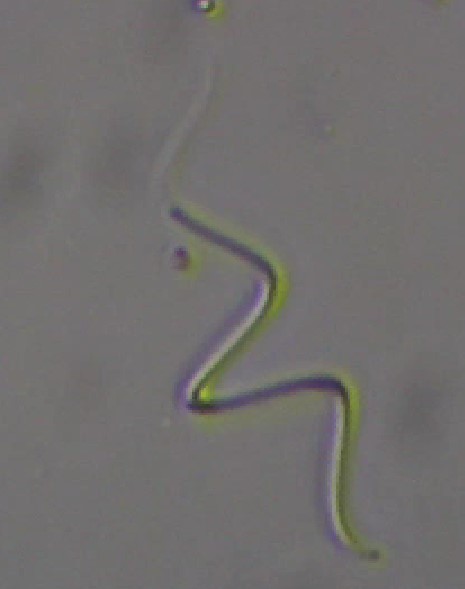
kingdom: Bacteria
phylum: Cyanobacteria
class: Cyanobacteriia
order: Leptolyngbyales
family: Leptolyngbyaceae
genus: Planktolyngbya
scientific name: Planktolyngbya contorta
